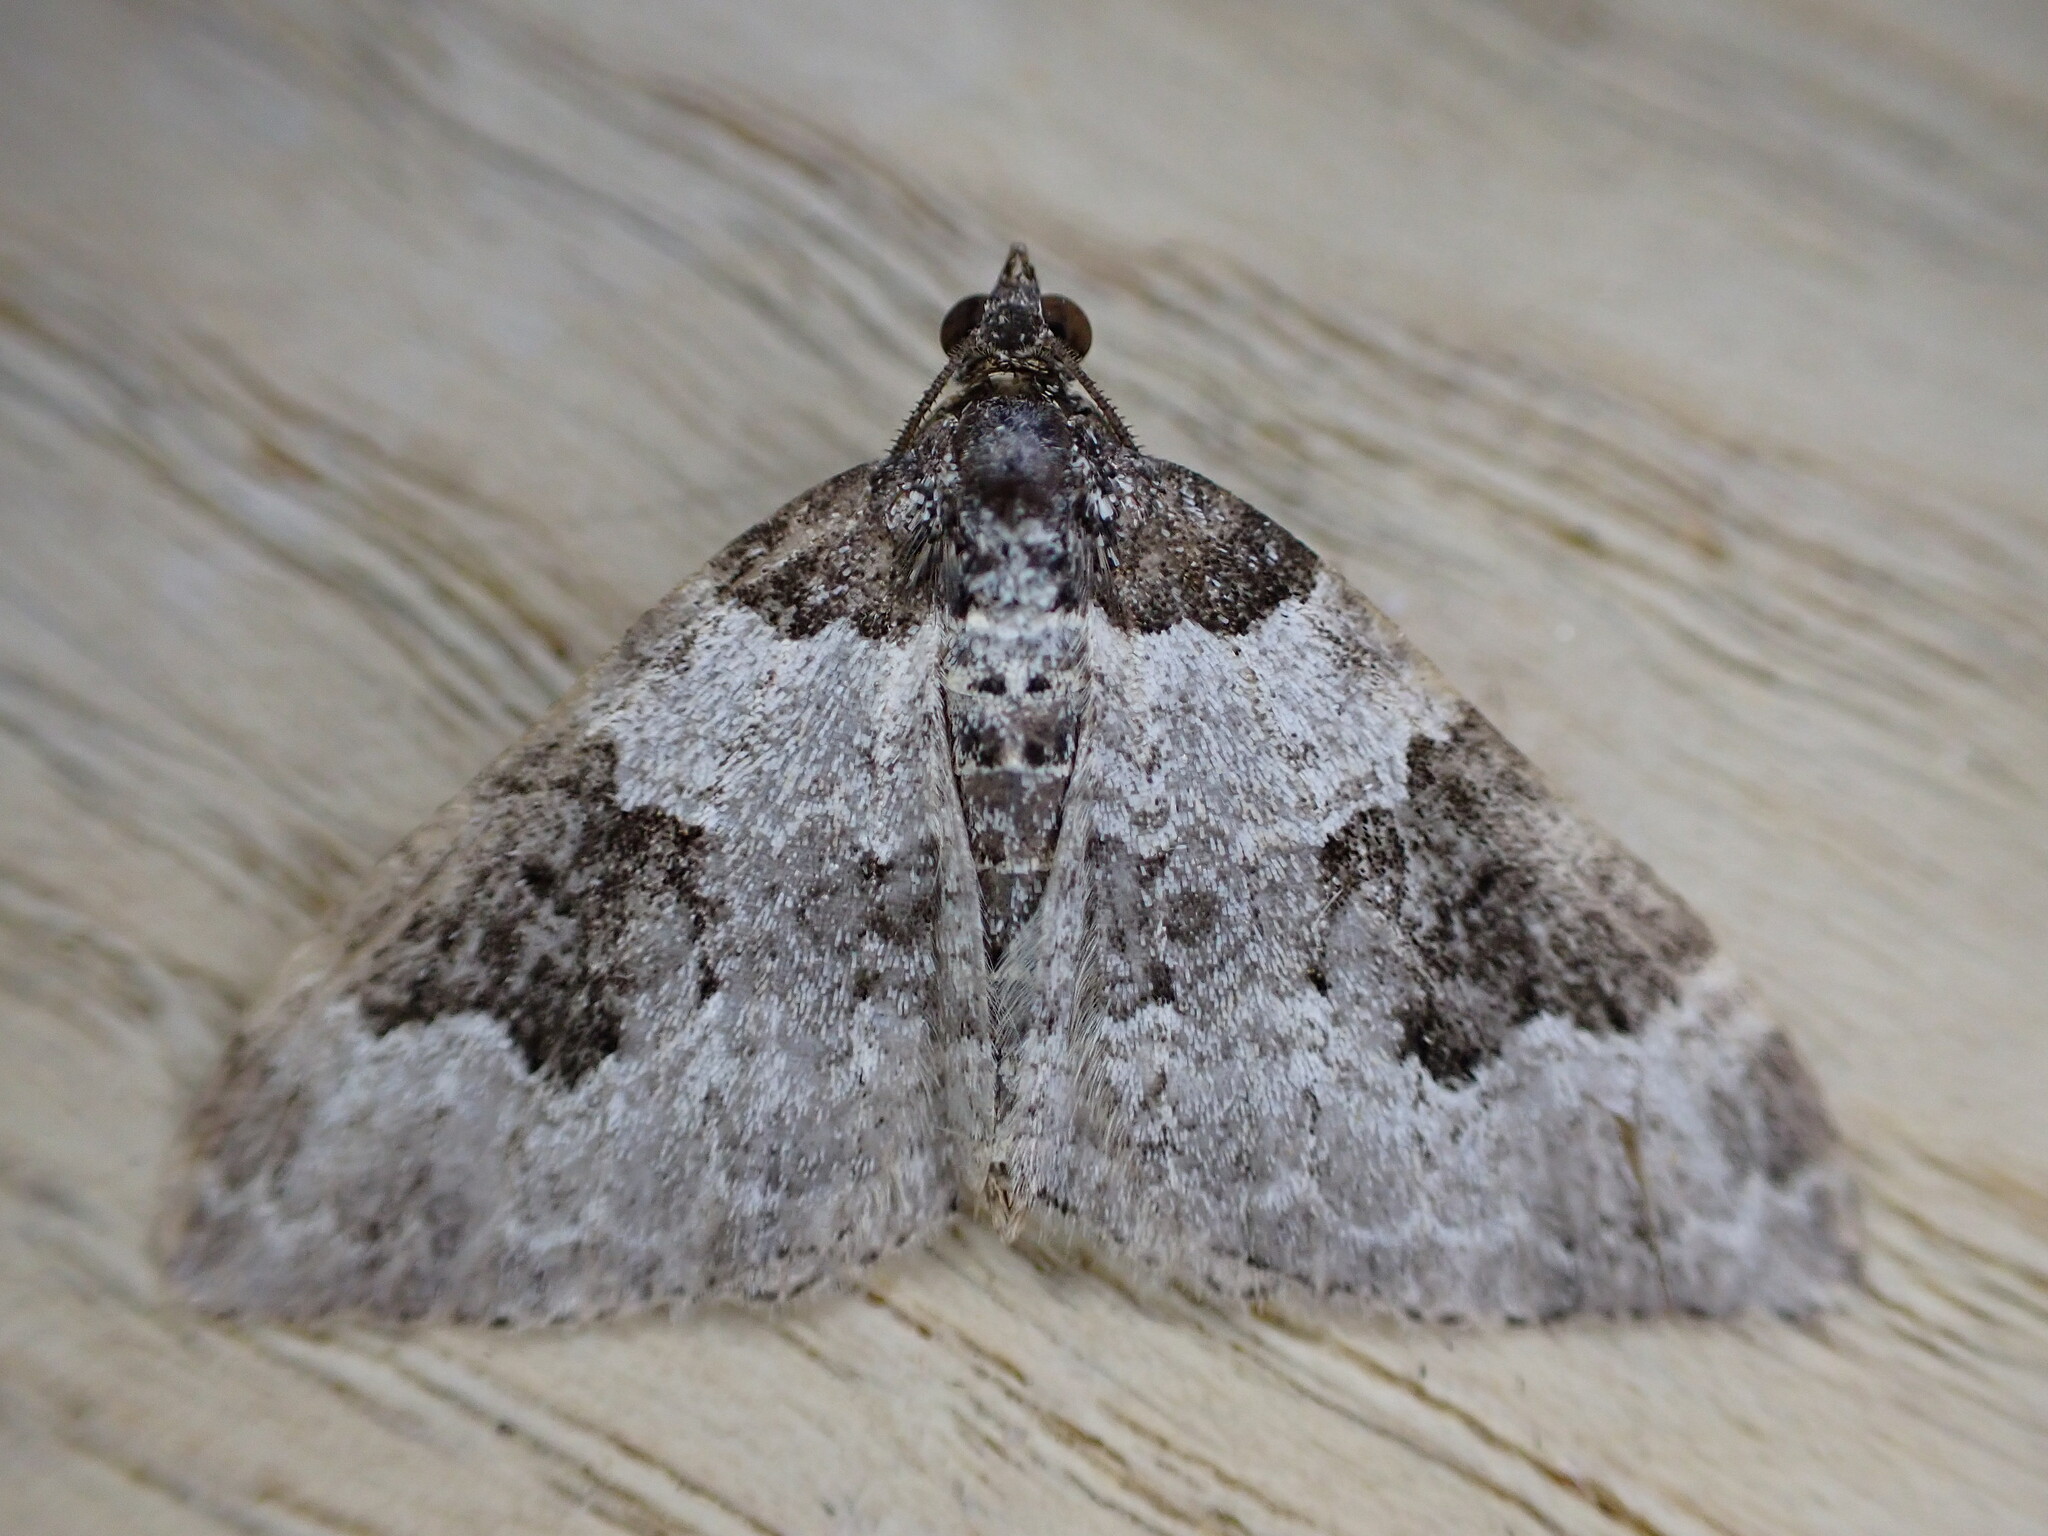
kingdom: Animalia
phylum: Arthropoda
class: Insecta
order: Lepidoptera
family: Geometridae
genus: Xanthorhoe
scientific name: Xanthorhoe fluctuata
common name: Garden carpet
